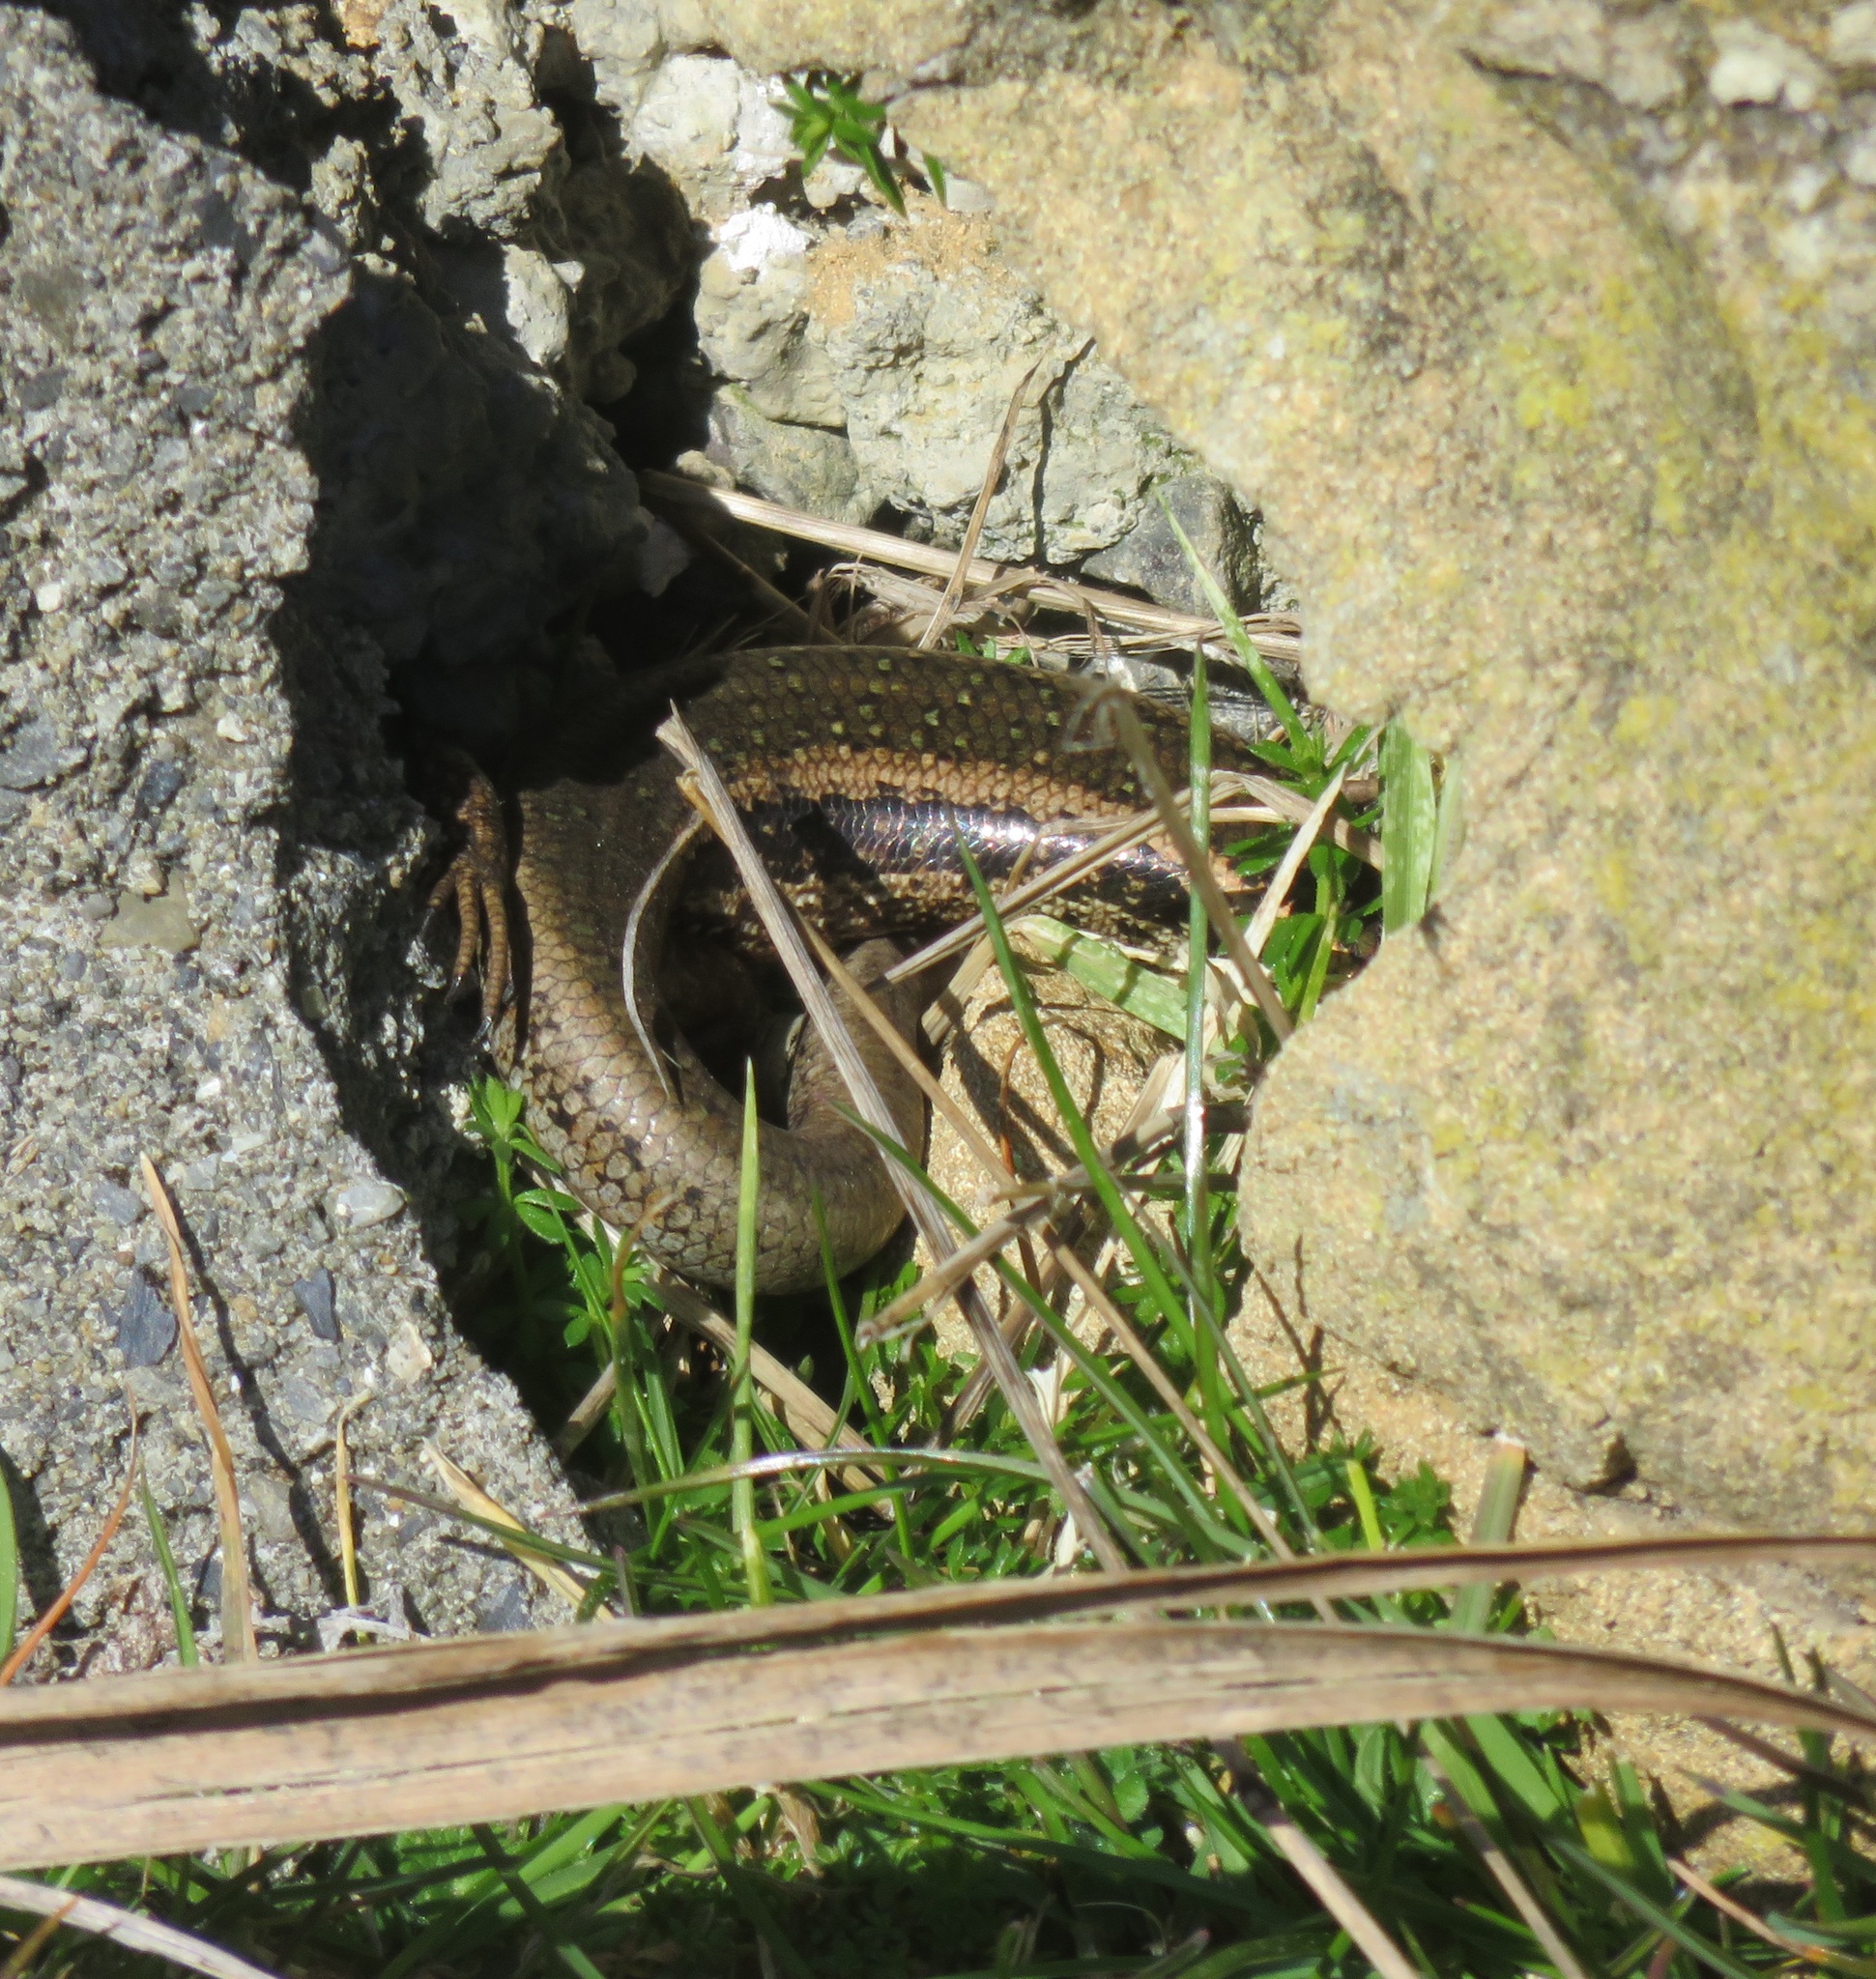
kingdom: Animalia
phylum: Chordata
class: Squamata
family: Scincidae
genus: Oligosoma
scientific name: Oligosoma kokowai
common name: Northern spotted skink
